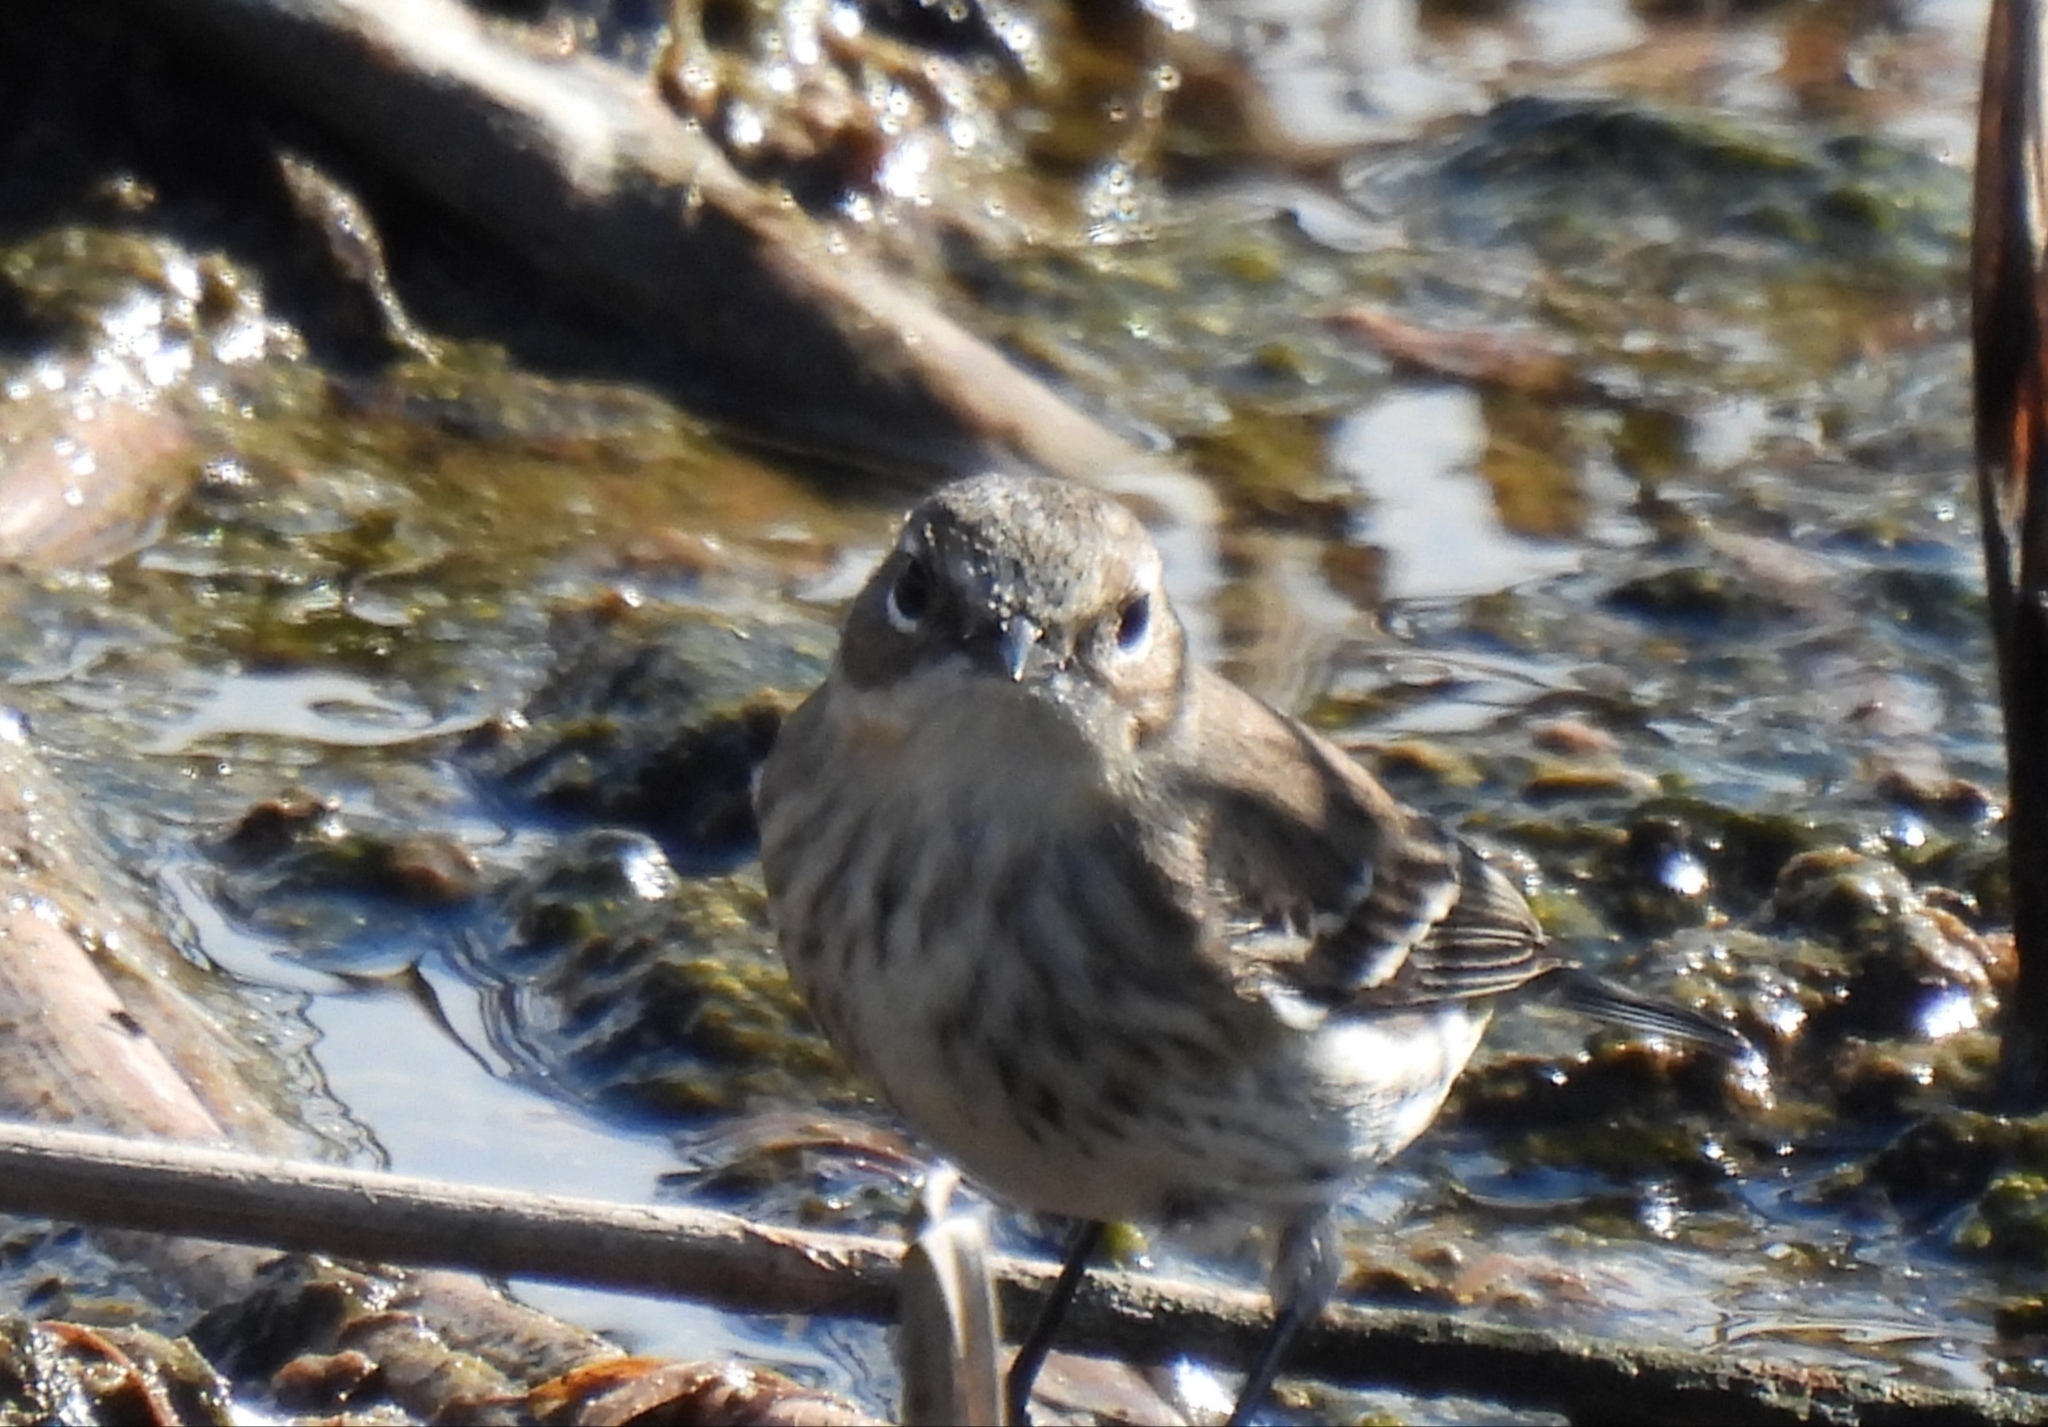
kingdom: Animalia
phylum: Chordata
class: Aves
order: Passeriformes
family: Parulidae
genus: Setophaga
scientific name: Setophaga coronata
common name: Myrtle warbler
